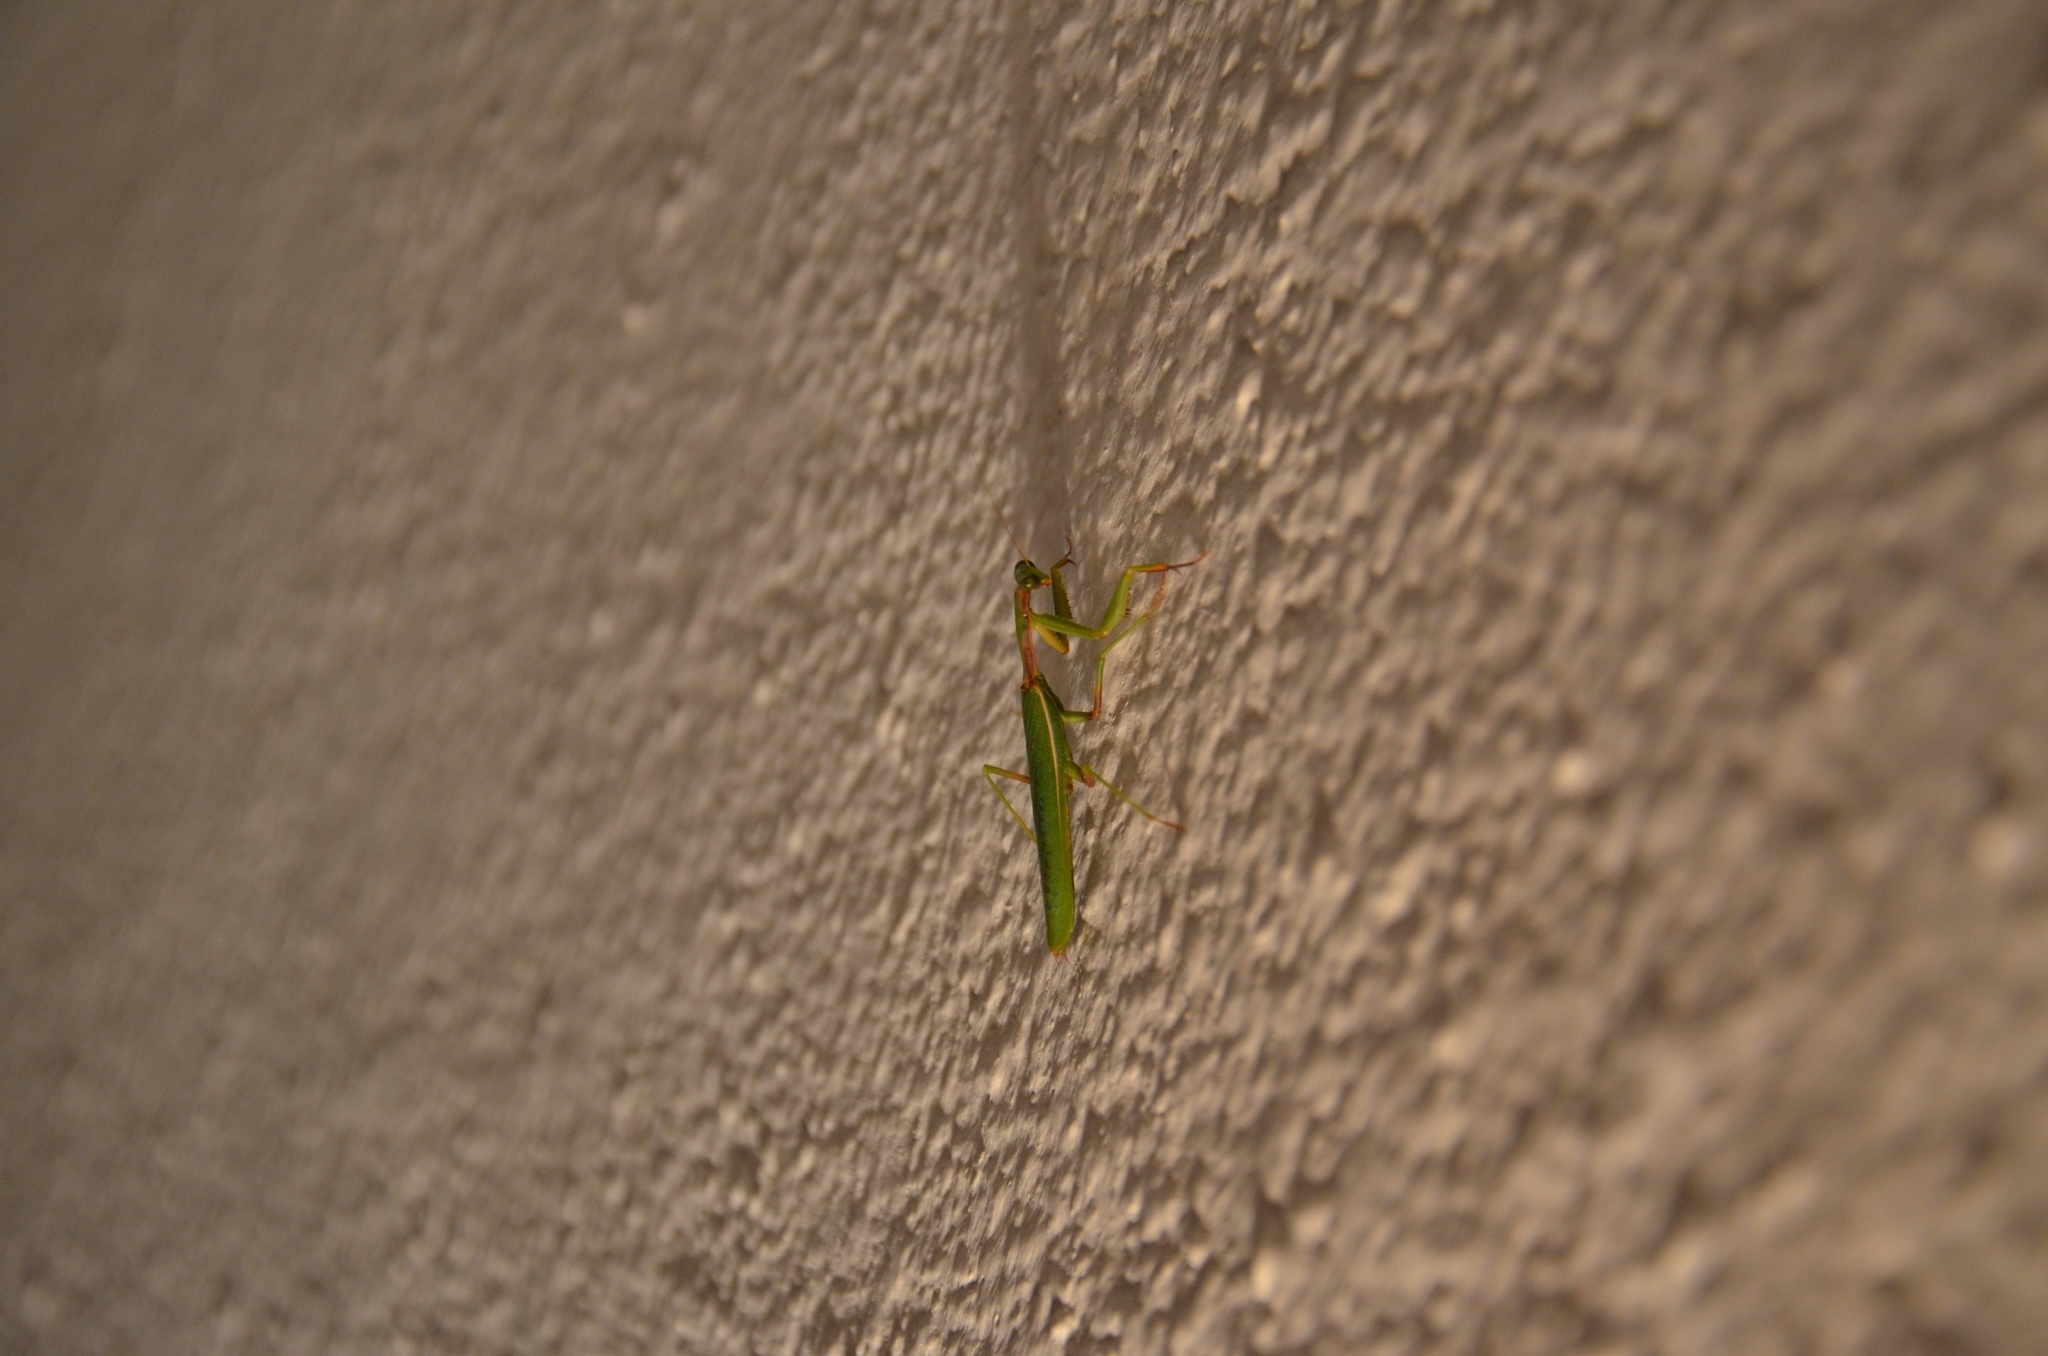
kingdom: Animalia
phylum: Arthropoda
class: Insecta
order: Mantodea
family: Eremiaphilidae
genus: Iris
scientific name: Iris oratoria
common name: Mediterranean mantis
